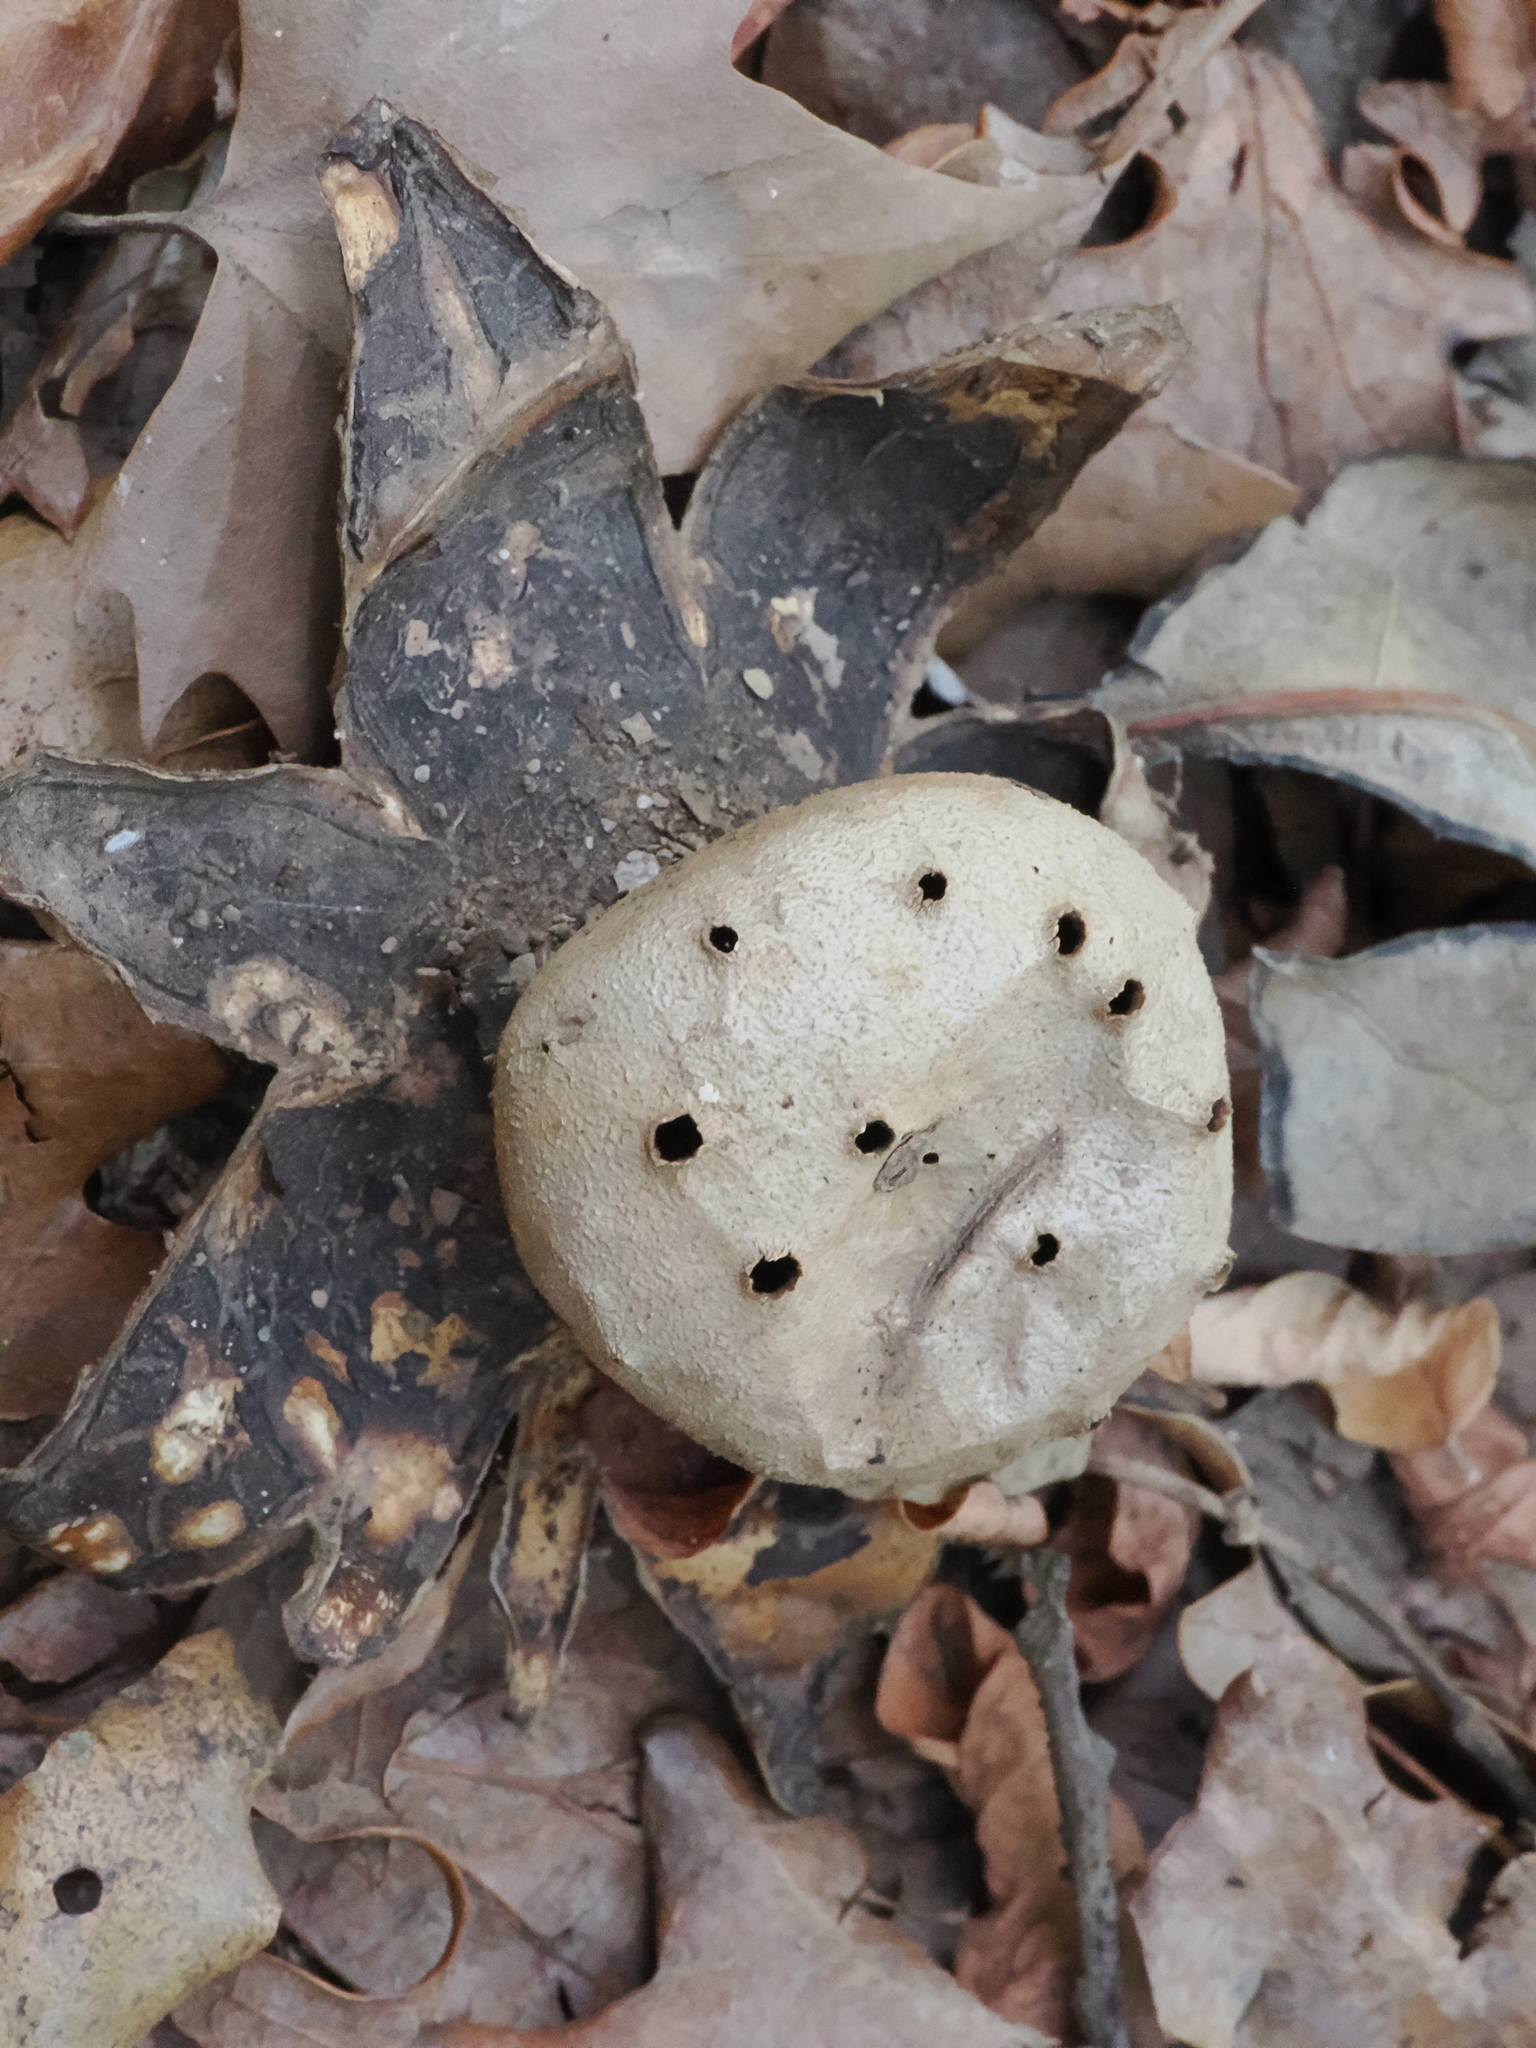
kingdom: Fungi
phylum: Basidiomycota
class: Agaricomycetes
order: Geastrales
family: Geastraceae
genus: Myriostoma
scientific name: Myriostoma coliforme
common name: Pepper pot
